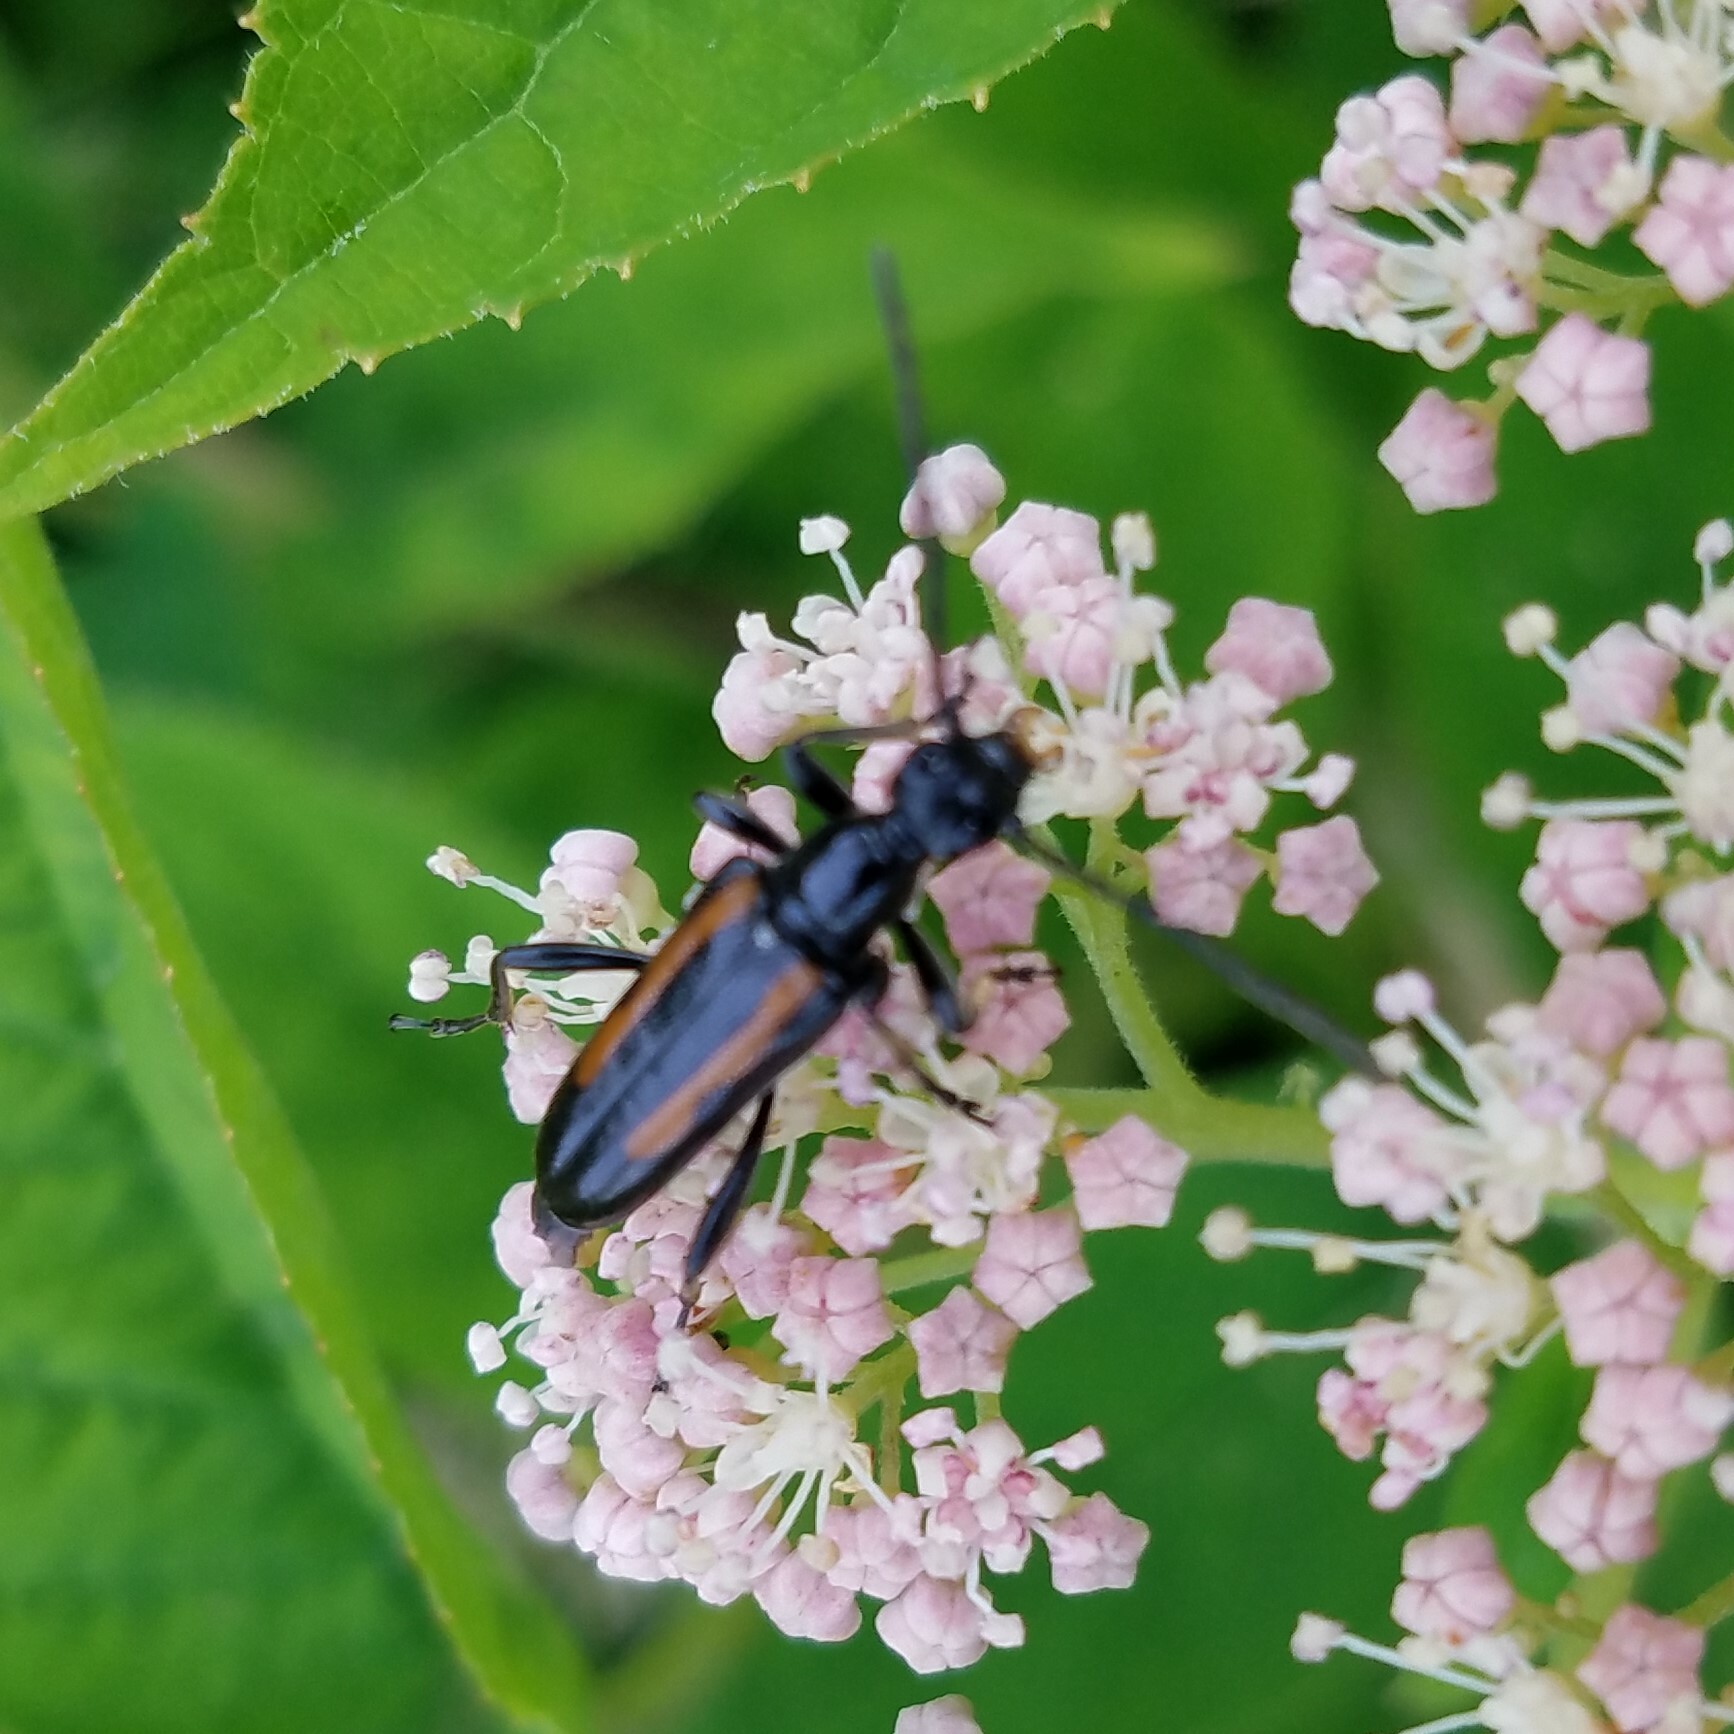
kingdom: Animalia
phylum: Arthropoda
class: Insecta
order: Coleoptera
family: Cerambycidae
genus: Strangalepta
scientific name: Strangalepta abbreviata
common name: Strangalepta flower longhorn beetle
